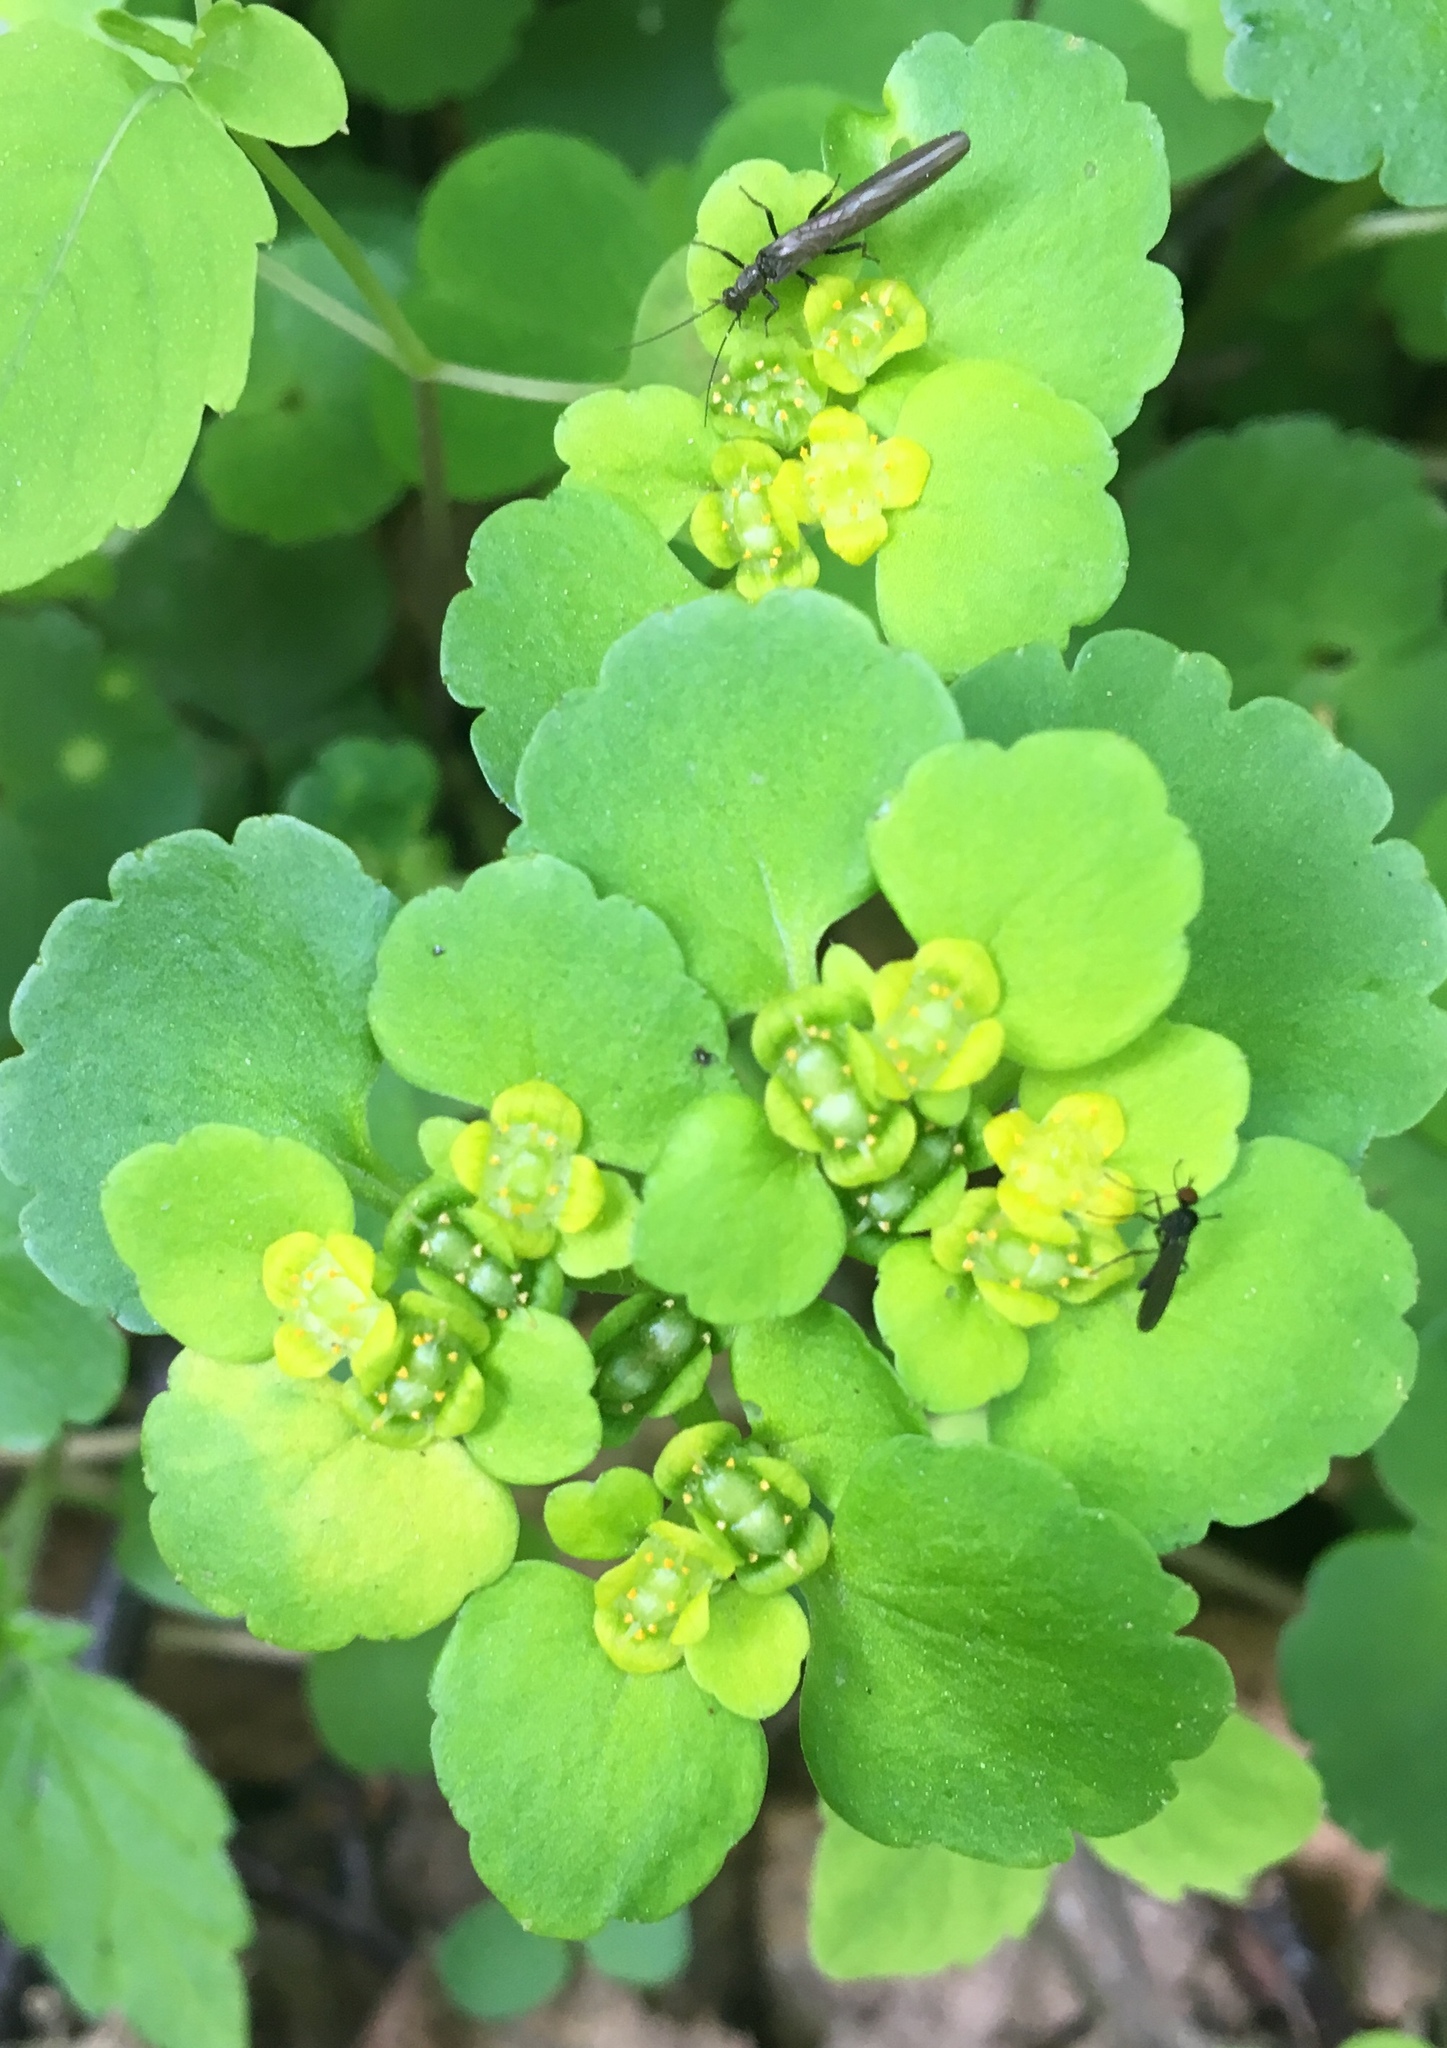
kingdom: Plantae
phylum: Tracheophyta
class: Magnoliopsida
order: Saxifragales
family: Saxifragaceae
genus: Chrysosplenium
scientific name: Chrysosplenium alternifolium
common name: Alternate-leaved golden-saxifrage
